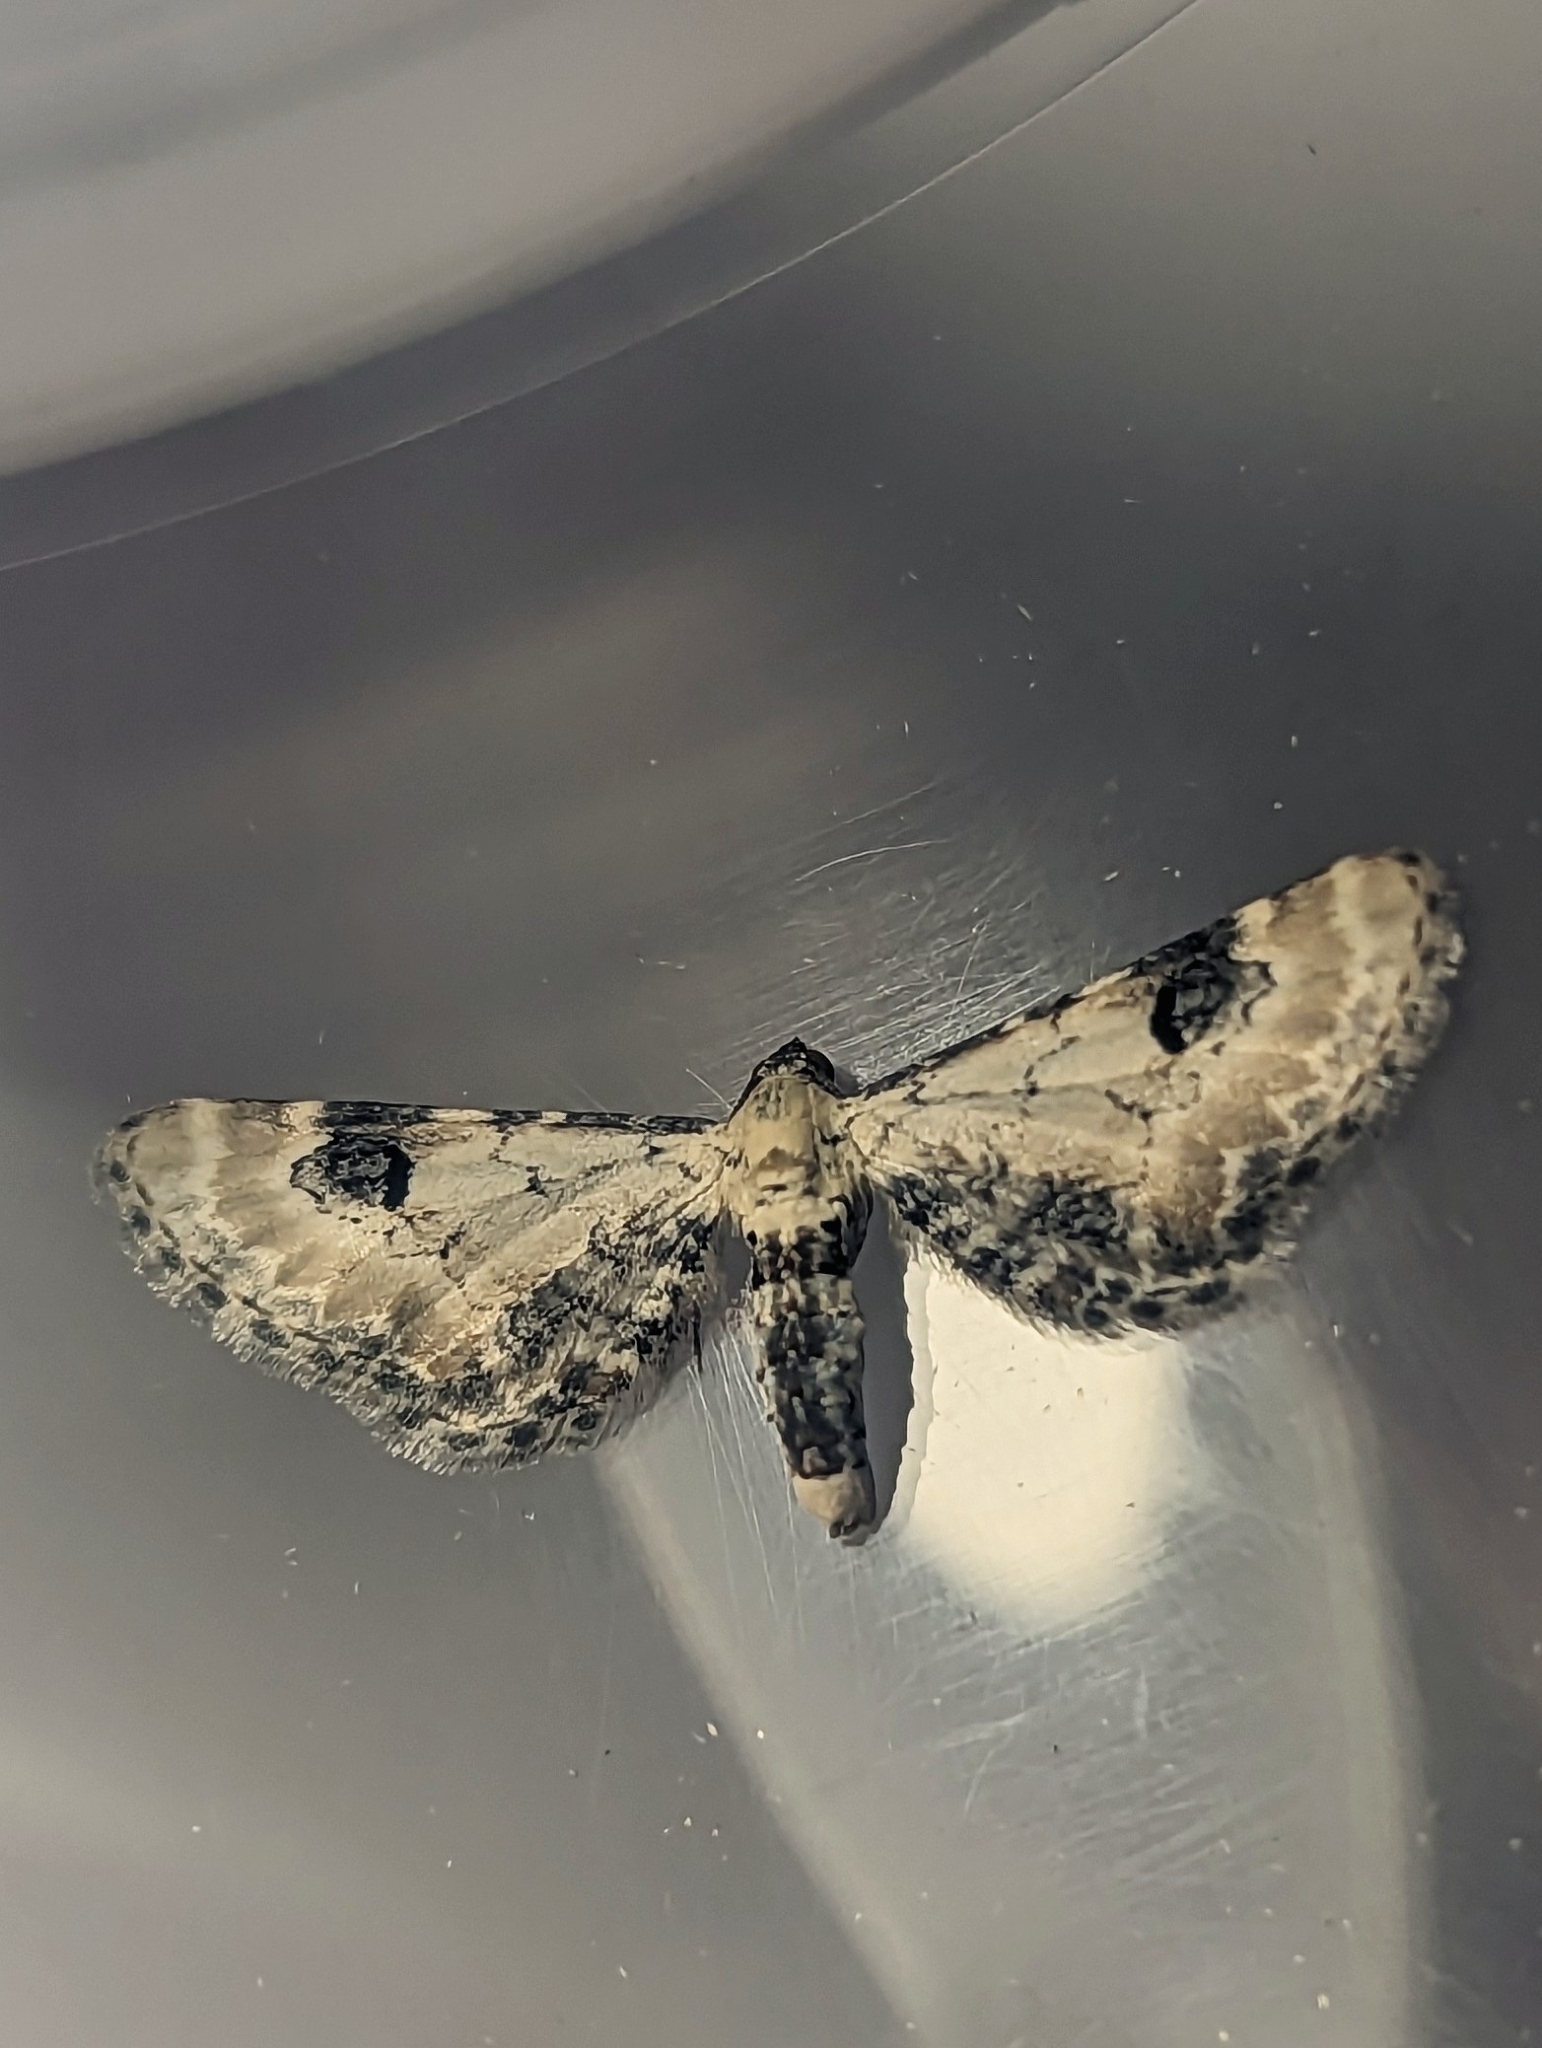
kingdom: Animalia
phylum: Arthropoda
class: Insecta
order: Lepidoptera
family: Geometridae
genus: Eupithecia
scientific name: Eupithecia centaureata
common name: Lime-speck pug
